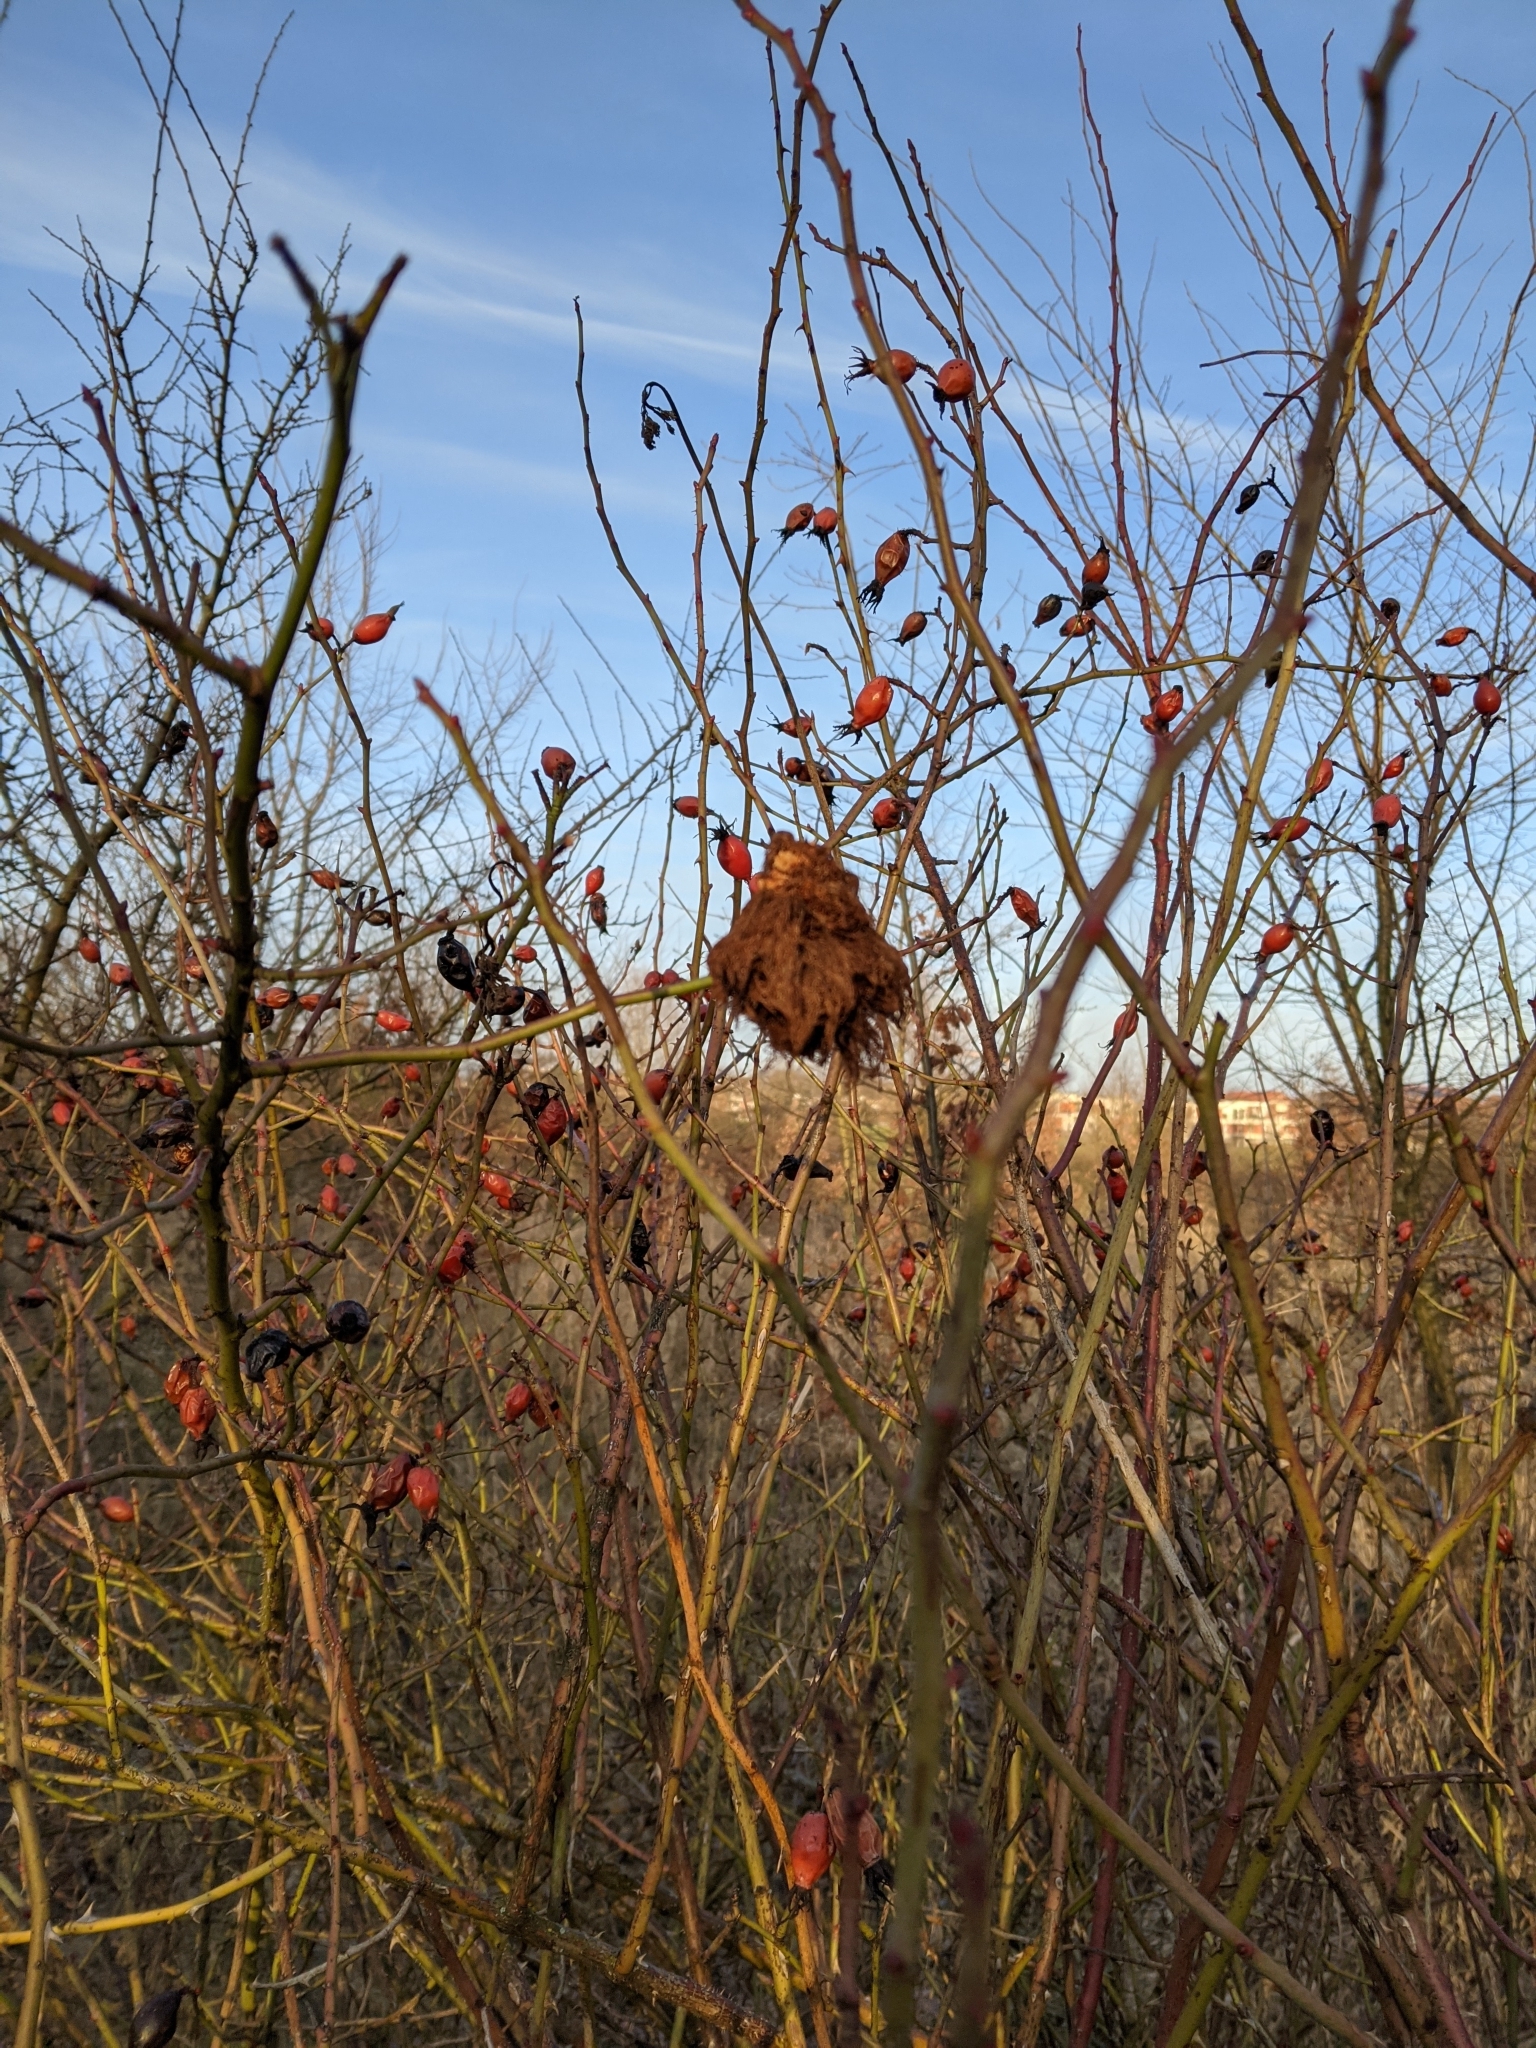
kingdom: Animalia
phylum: Arthropoda
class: Insecta
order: Hymenoptera
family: Cynipidae
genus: Diplolepis
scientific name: Diplolepis rosae
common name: Bedeguar gall
